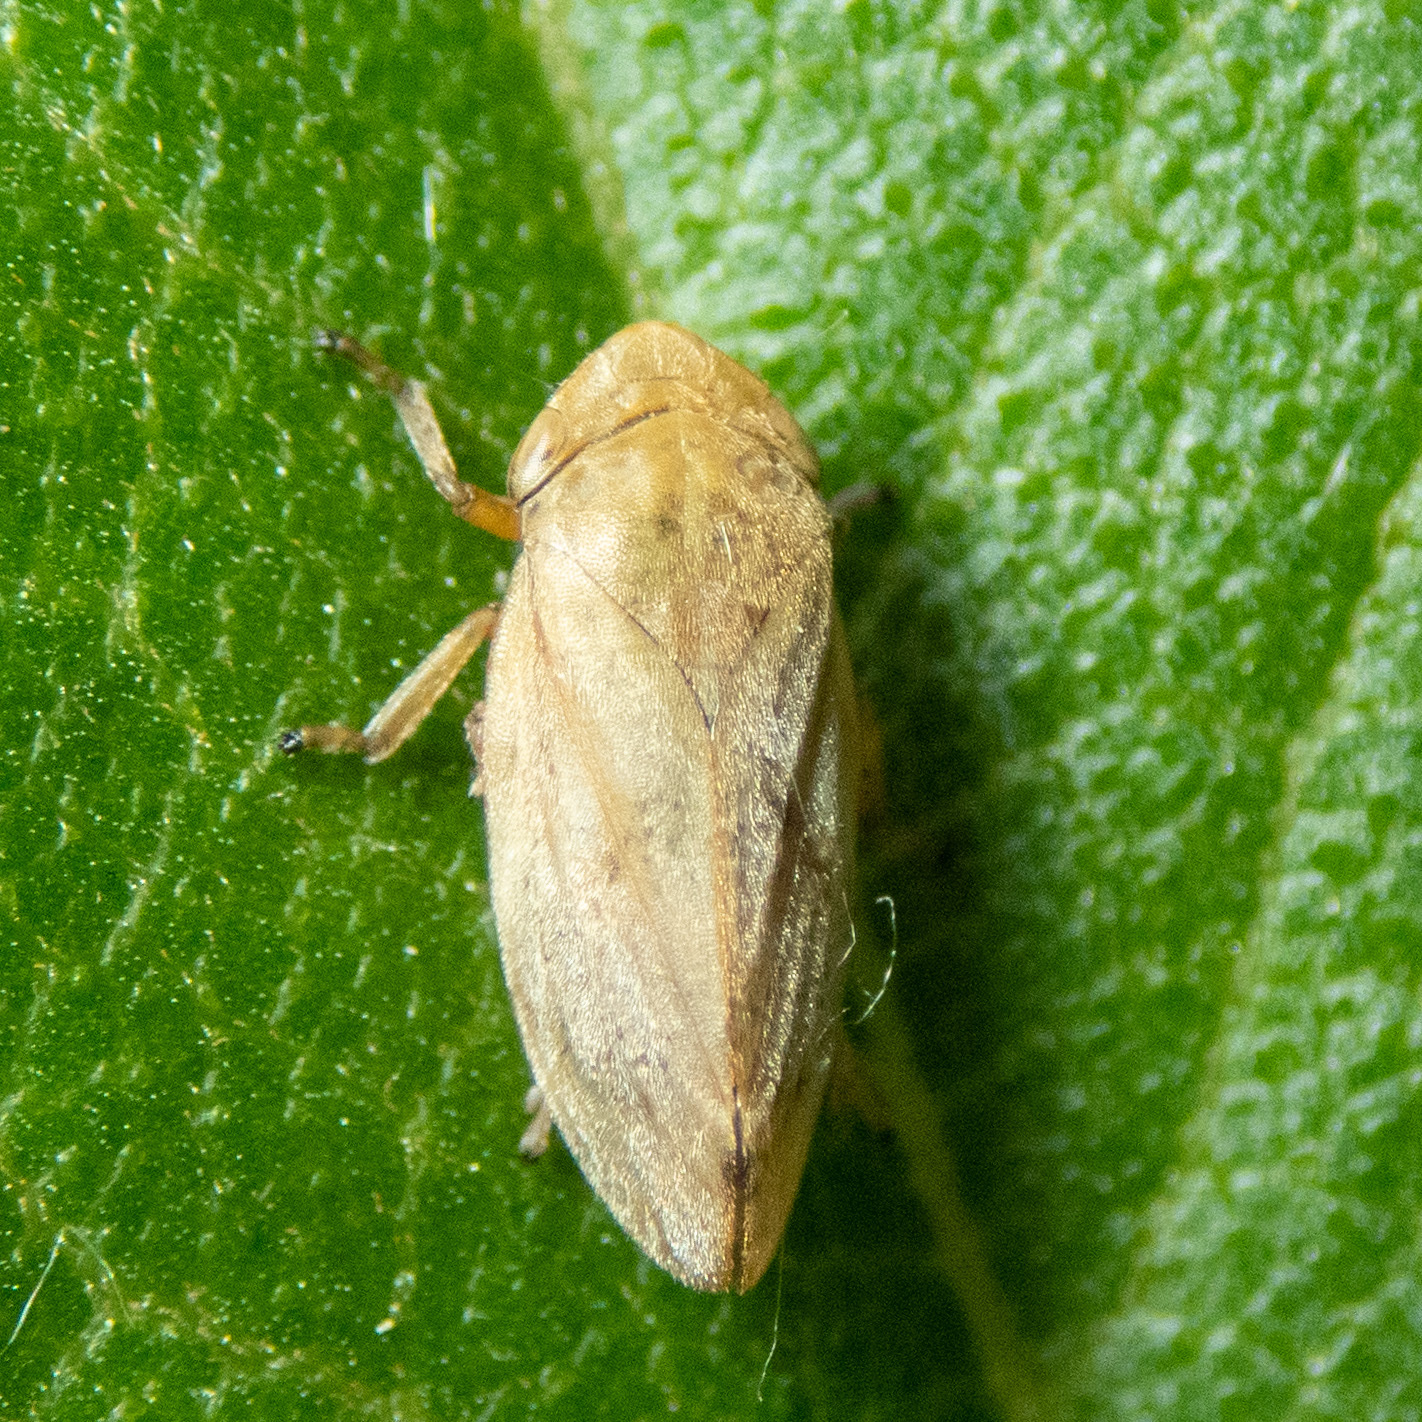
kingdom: Animalia
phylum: Arthropoda
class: Insecta
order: Hemiptera
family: Aphrophoridae
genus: Philaenus
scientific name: Philaenus spumarius
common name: Meadow spittlebug
